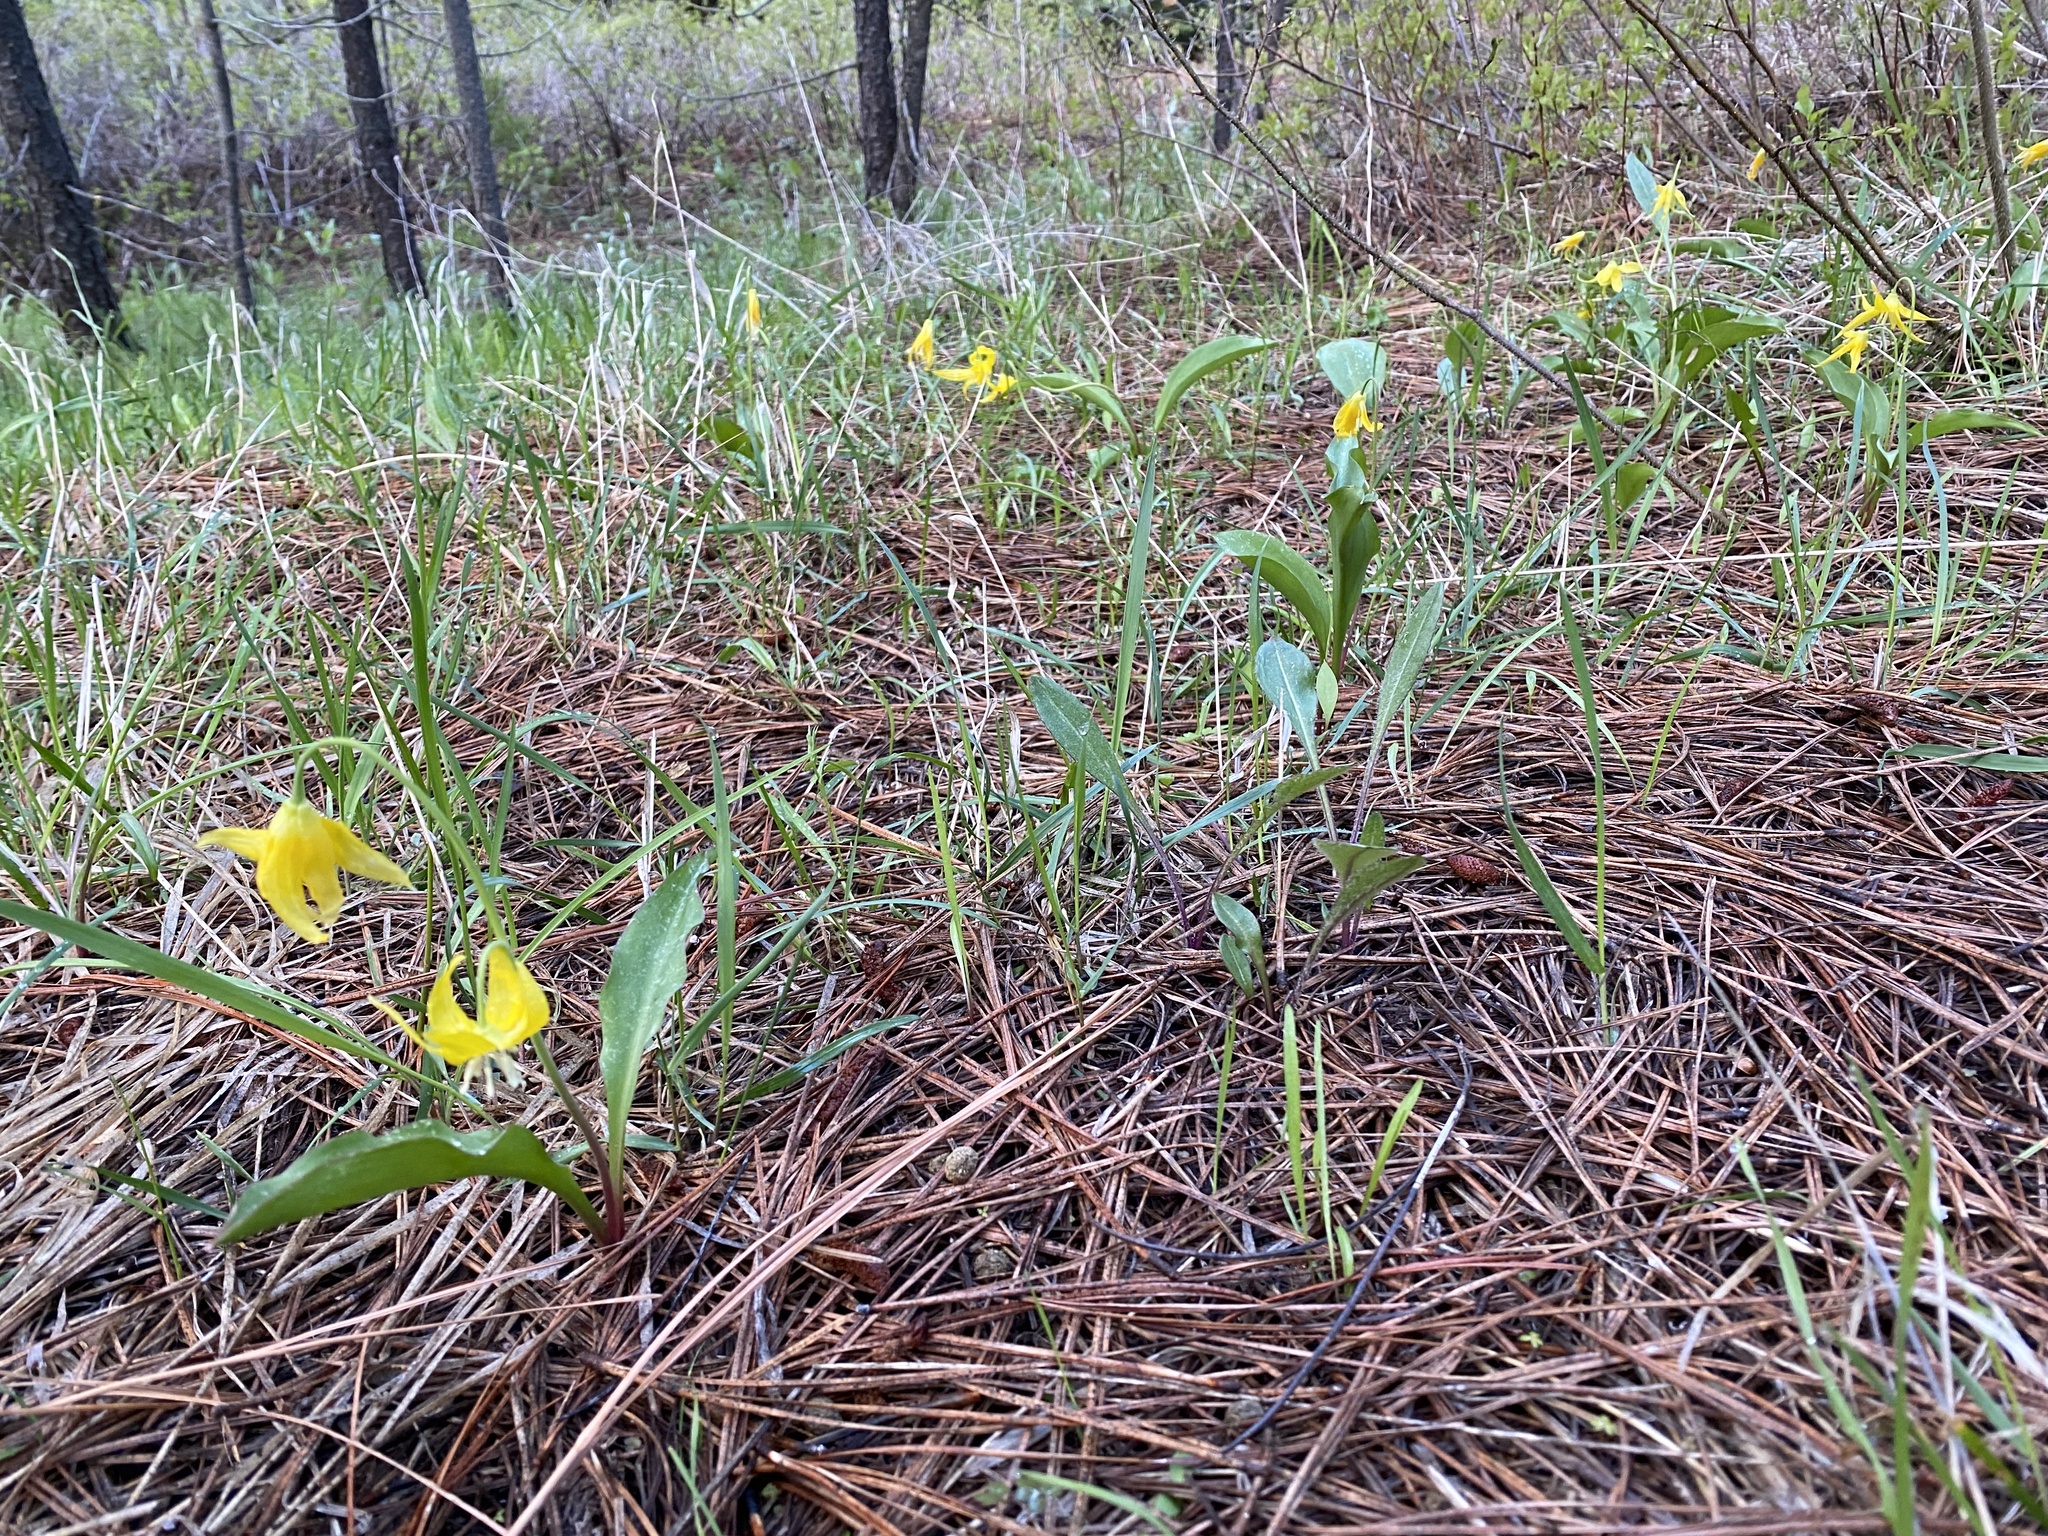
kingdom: Plantae
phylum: Tracheophyta
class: Liliopsida
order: Liliales
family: Liliaceae
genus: Erythronium
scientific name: Erythronium grandiflorum
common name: Avalanche-lily
